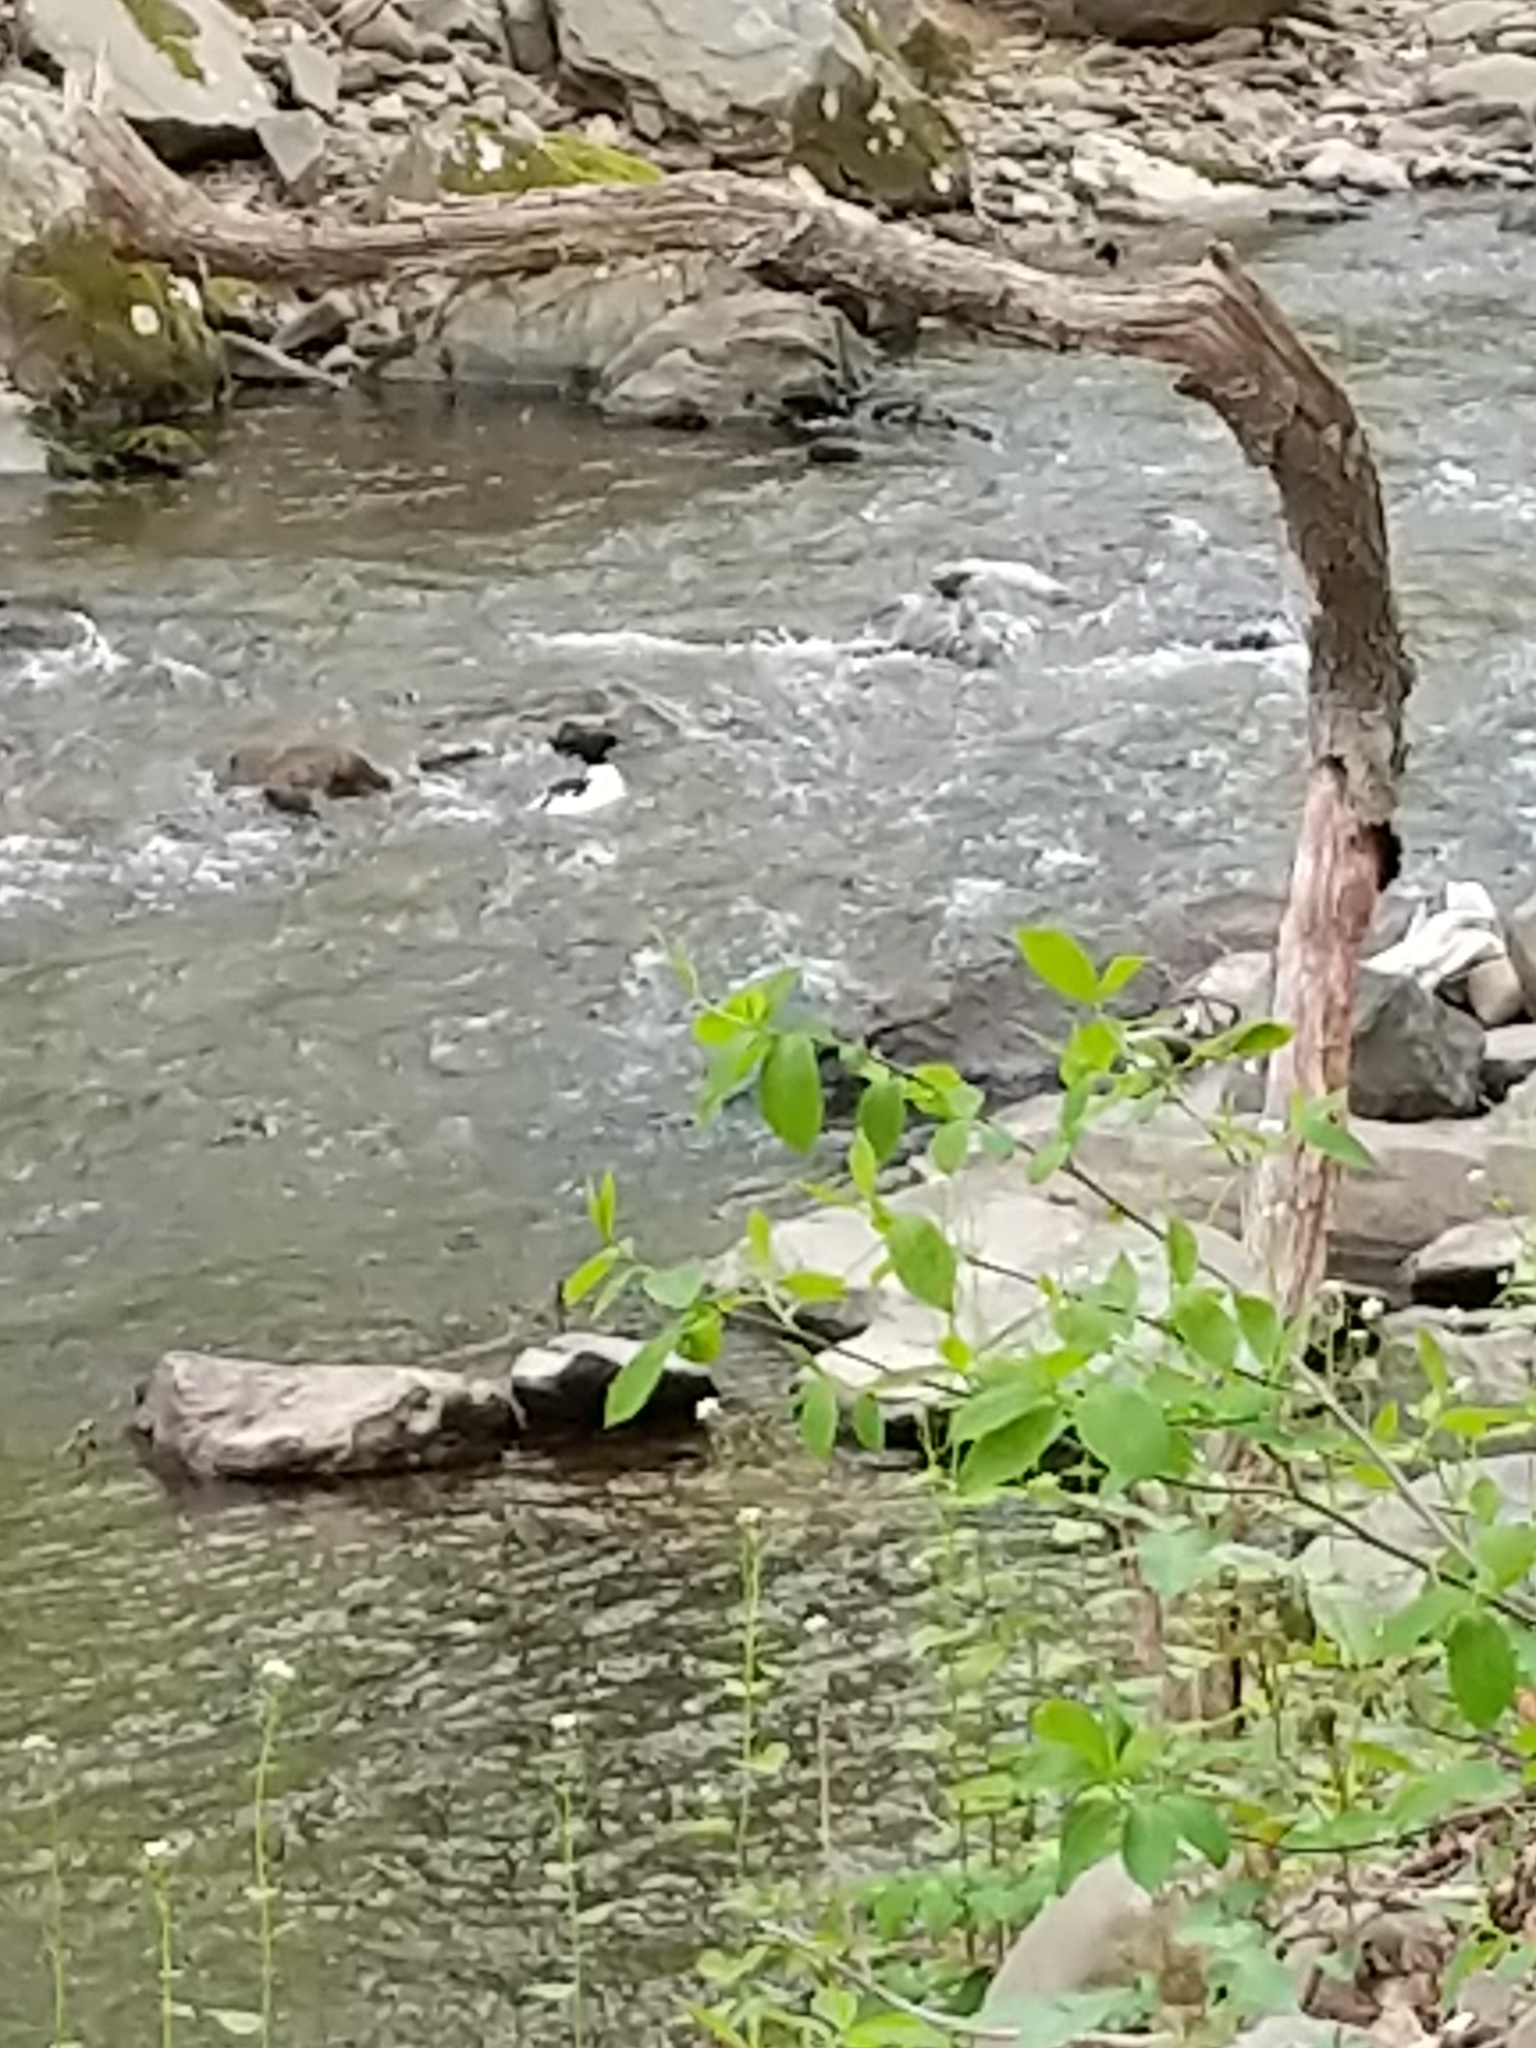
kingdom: Animalia
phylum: Chordata
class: Aves
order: Anseriformes
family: Anatidae
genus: Mergus
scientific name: Mergus merganser
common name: Common merganser
